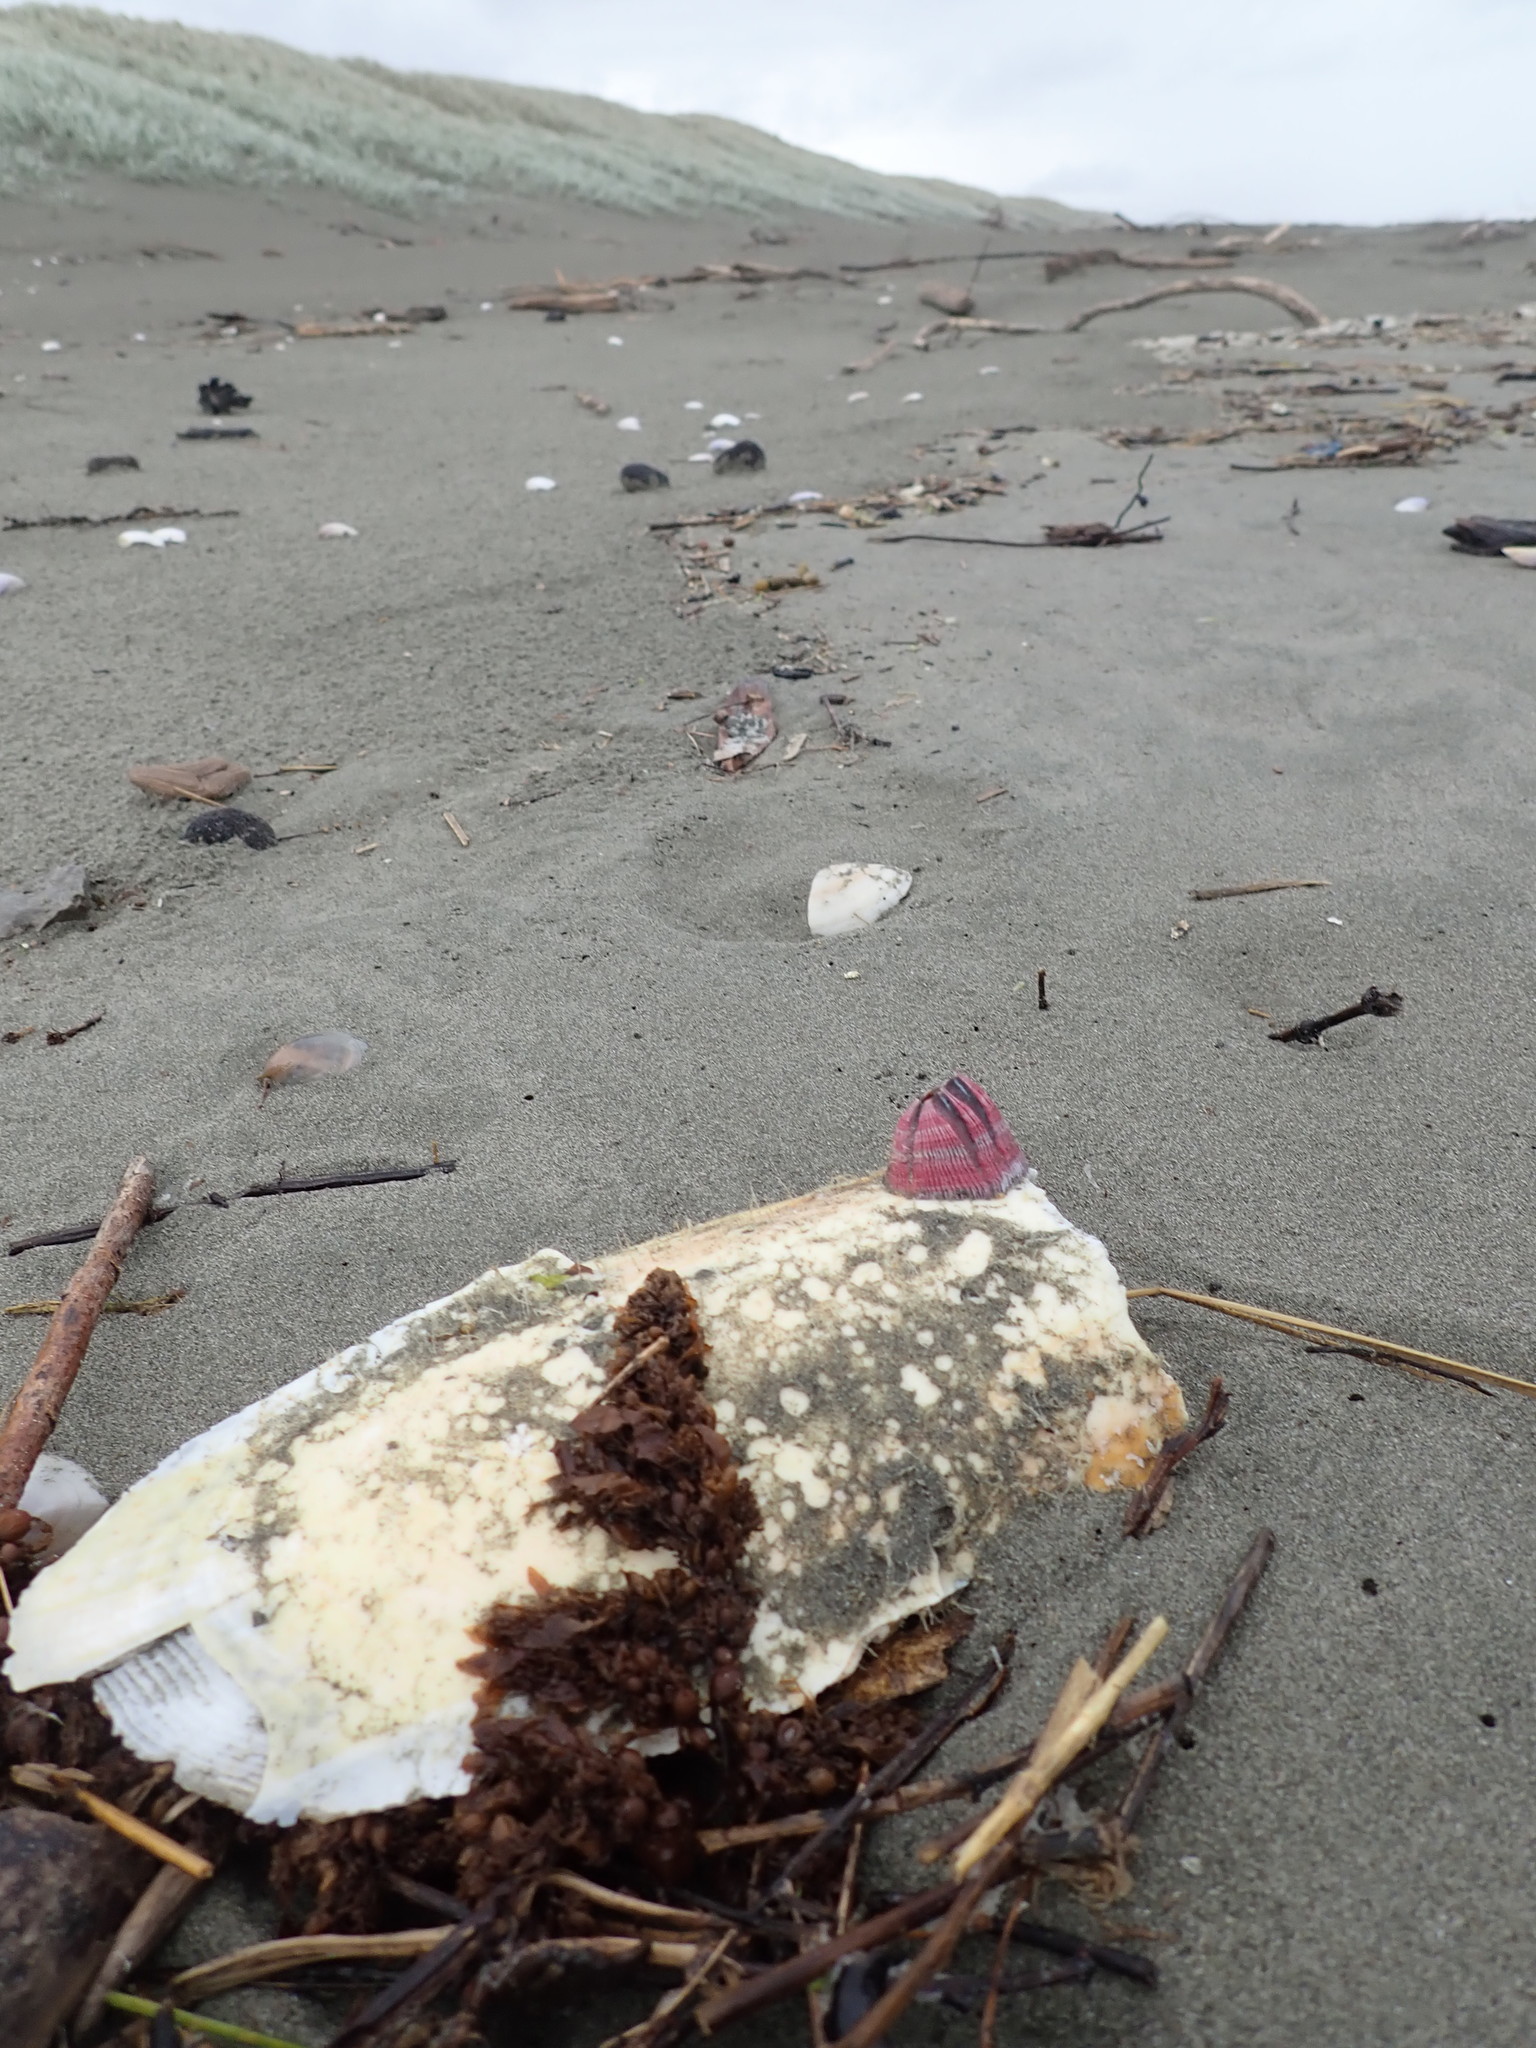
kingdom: Animalia
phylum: Arthropoda
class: Maxillopoda
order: Sessilia
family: Balanidae
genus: Megabalanus
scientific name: Megabalanus coccopoma
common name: Titan acorn barnacle
